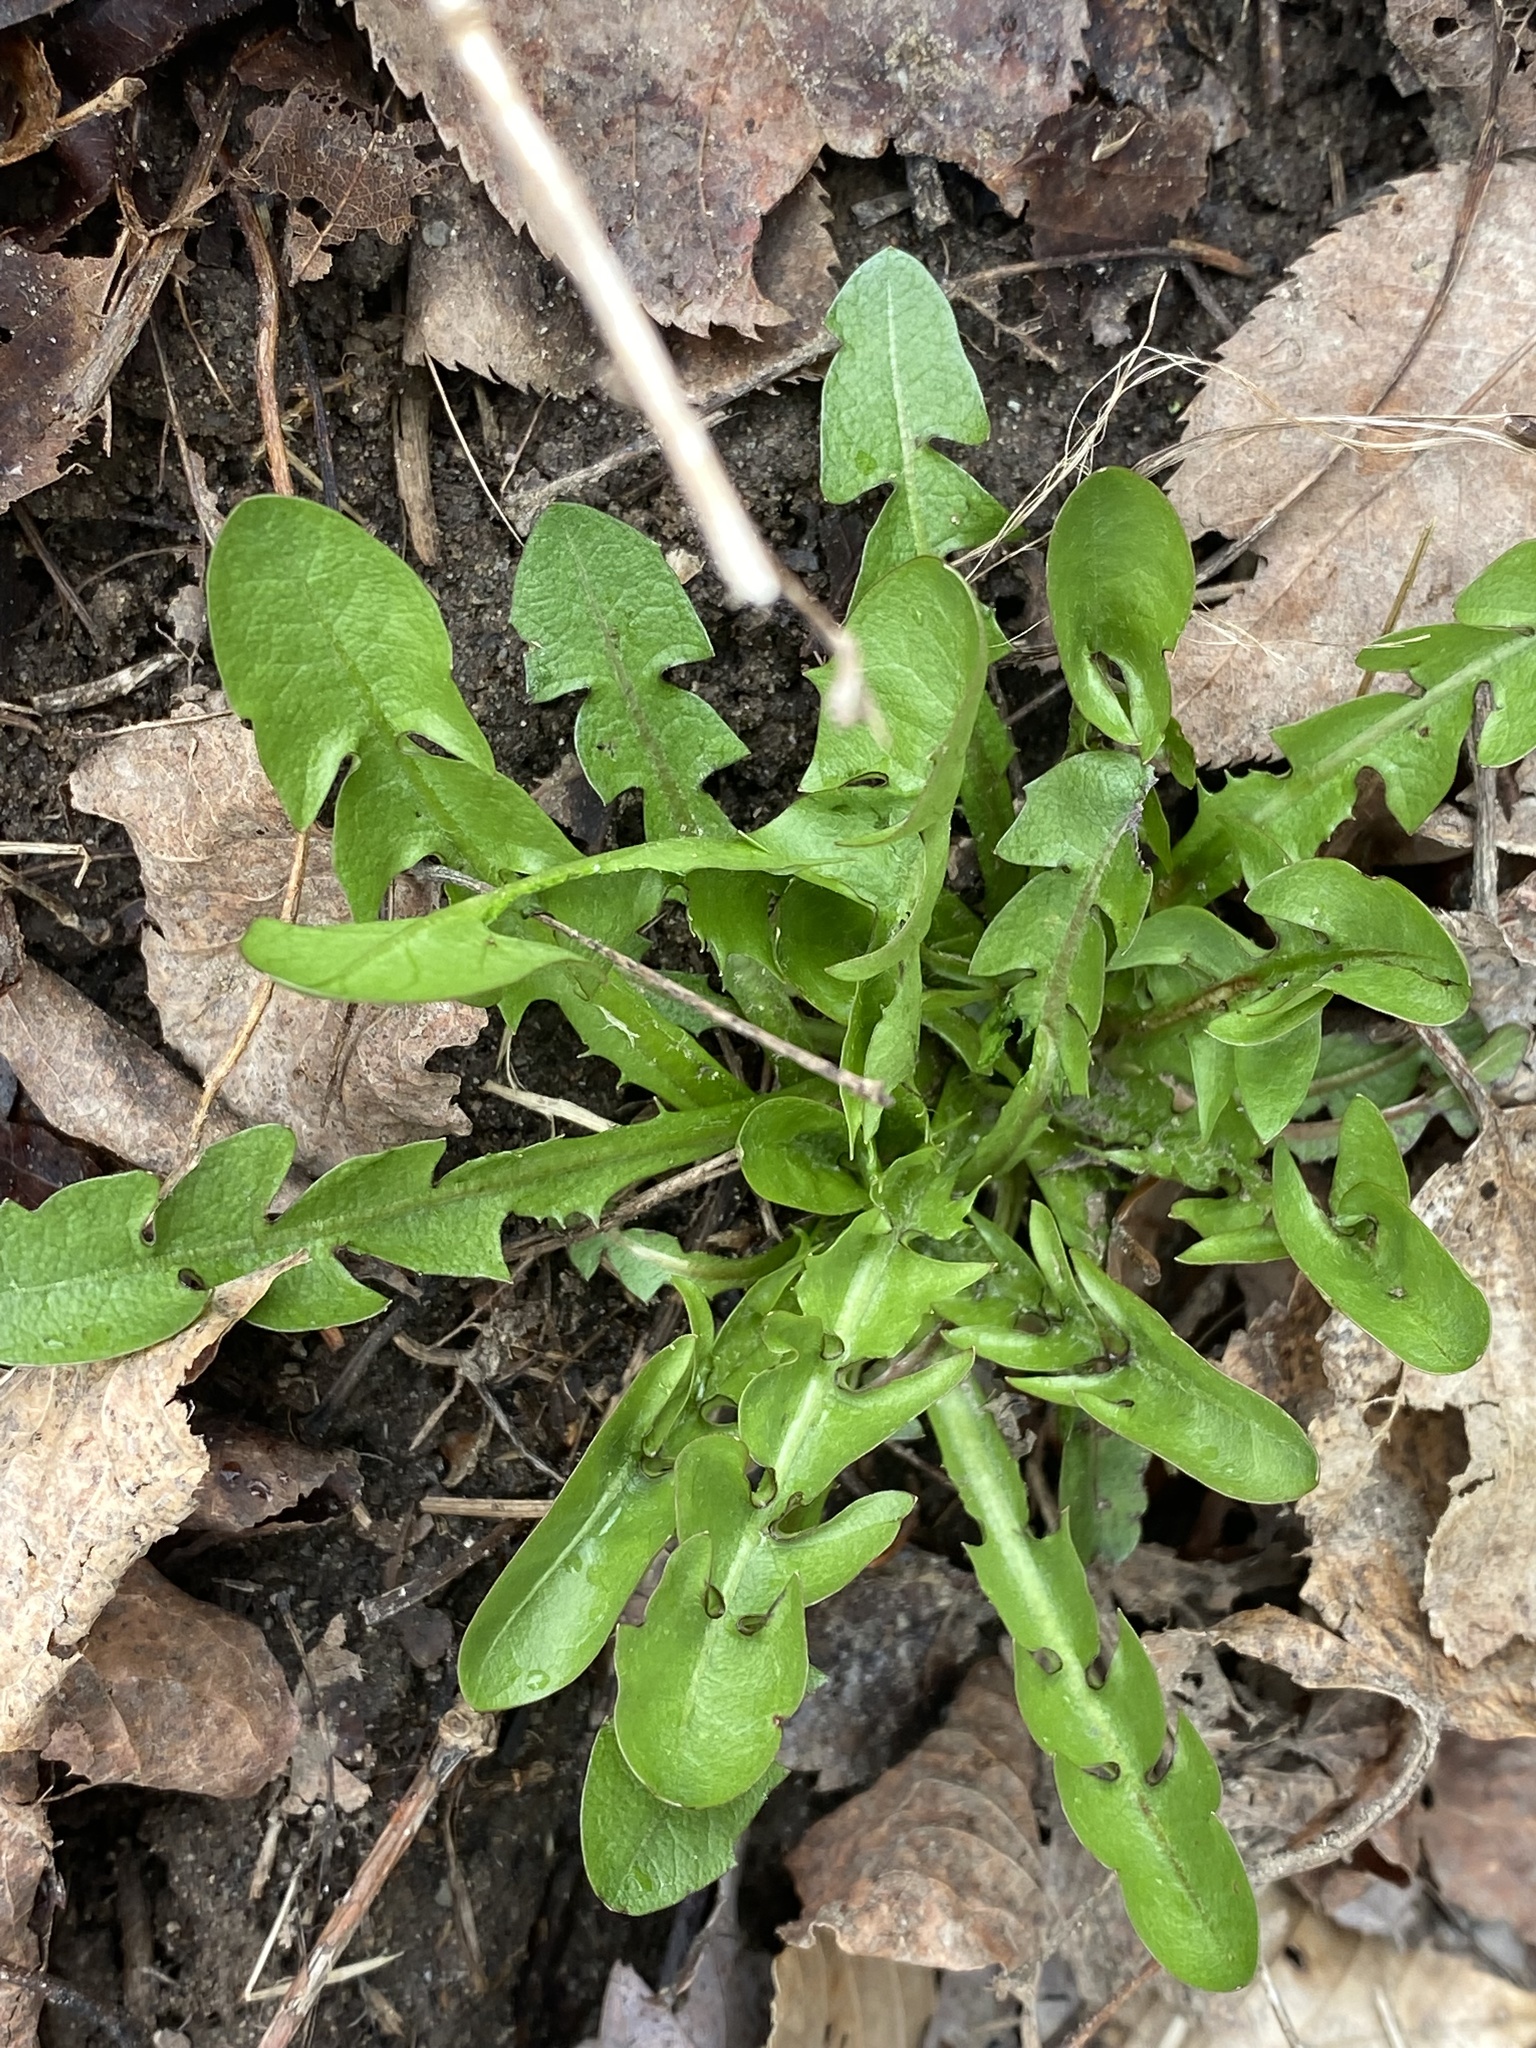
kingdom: Plantae
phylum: Tracheophyta
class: Magnoliopsida
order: Asterales
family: Asteraceae
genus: Taraxacum
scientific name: Taraxacum officinale
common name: Common dandelion
